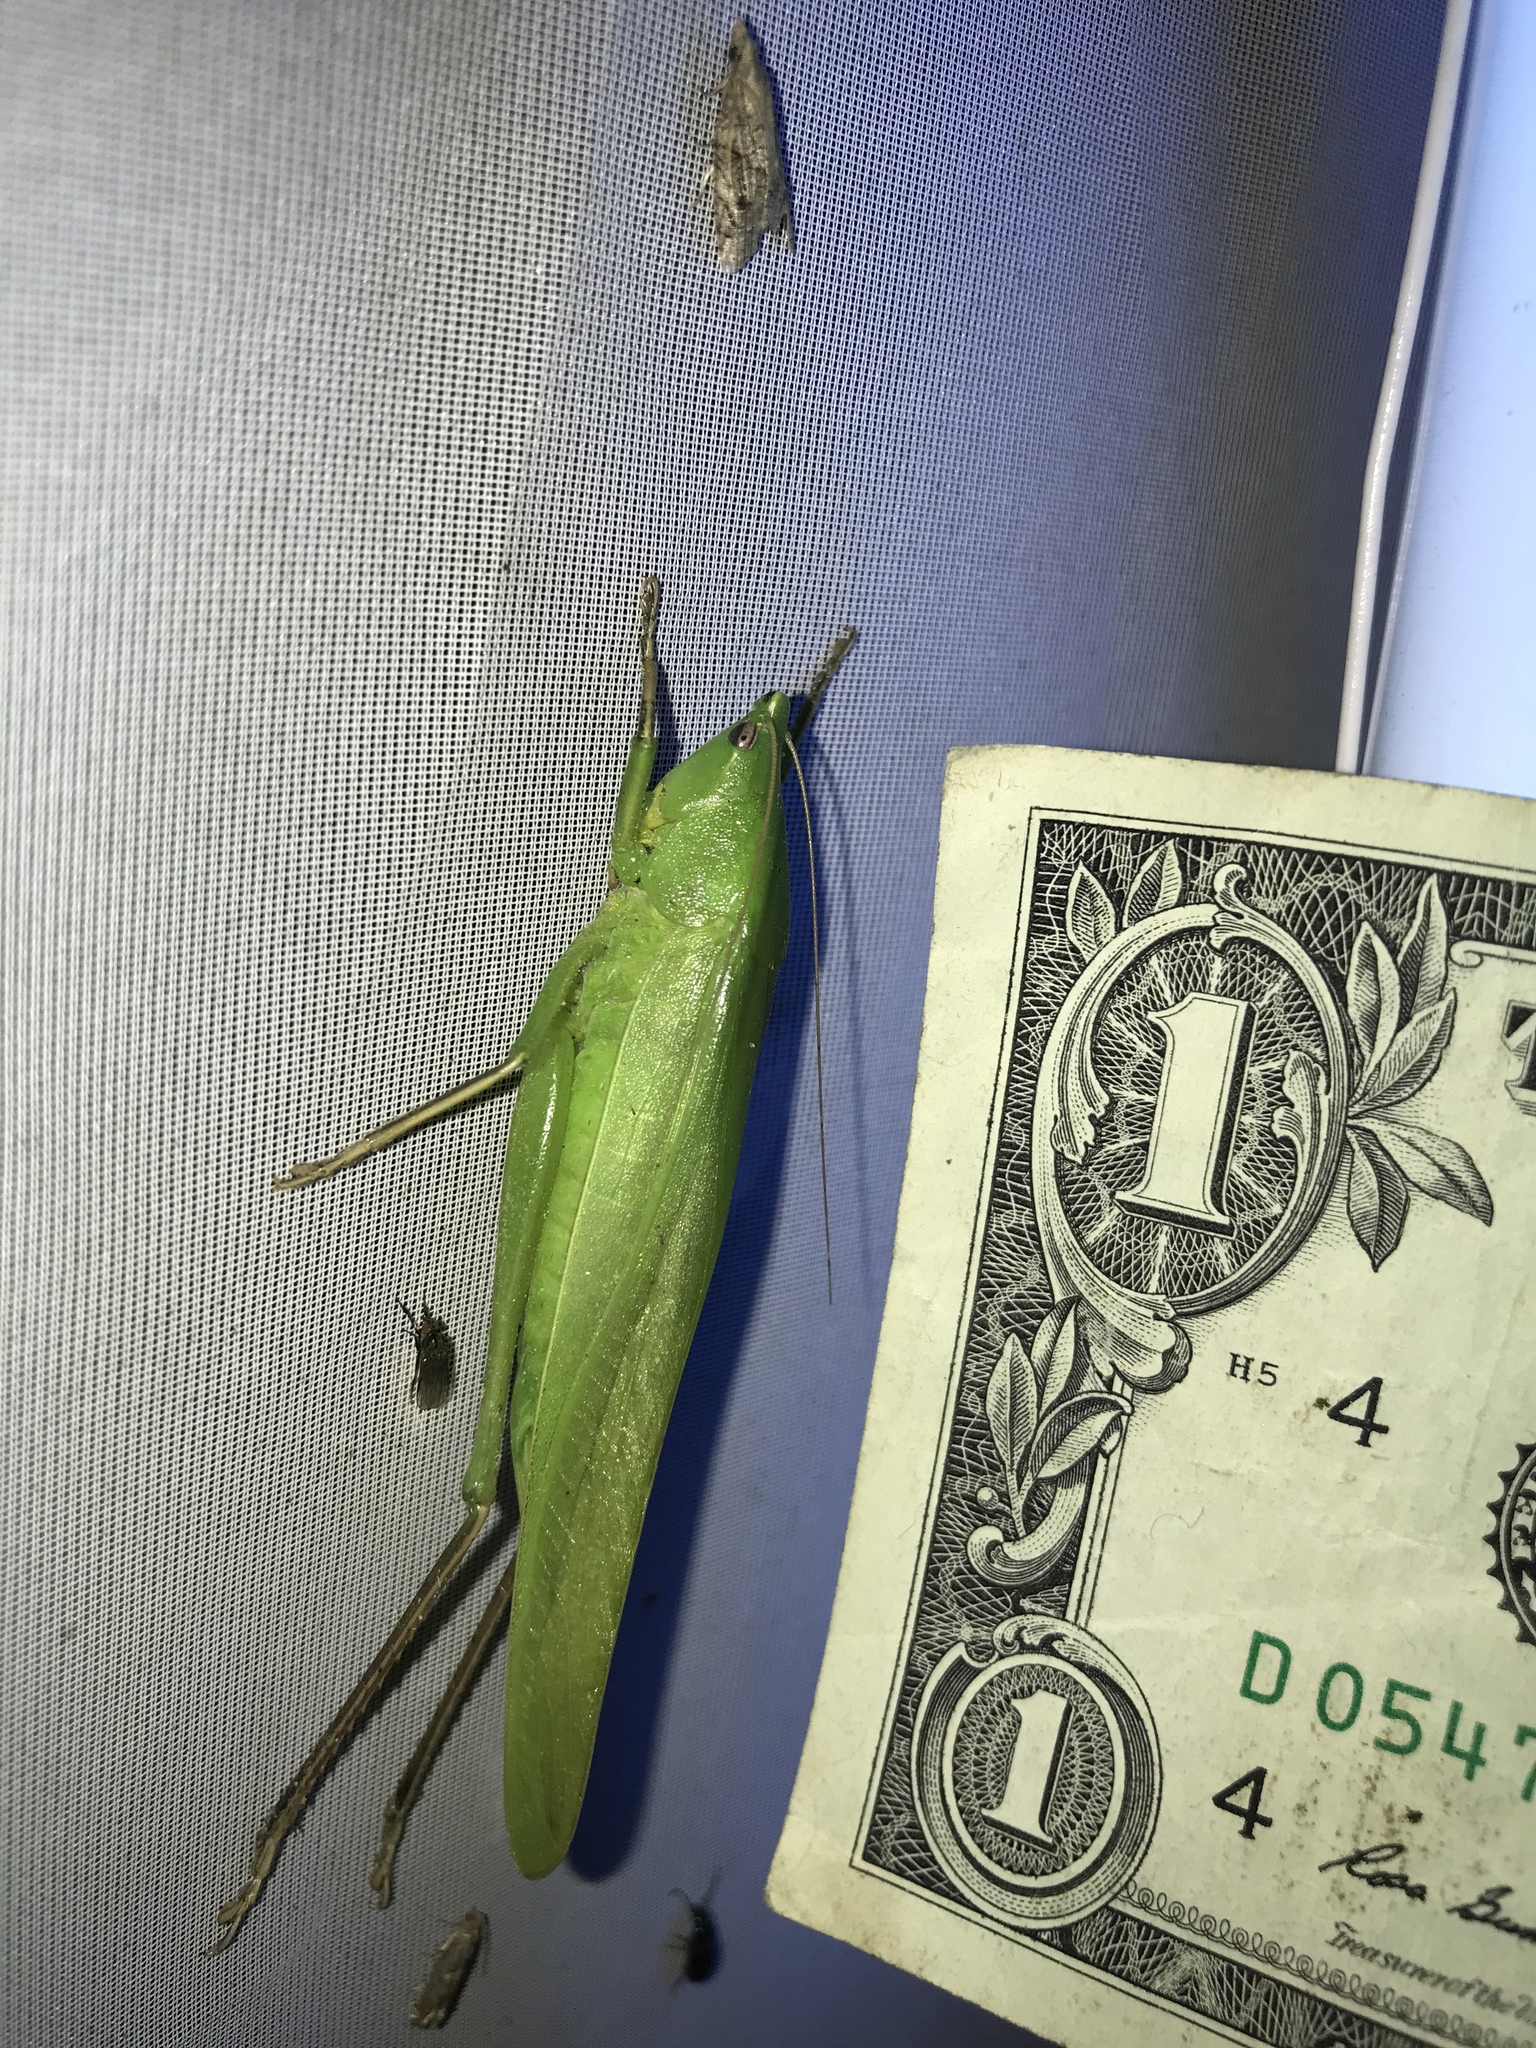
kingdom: Animalia
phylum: Arthropoda
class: Insecta
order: Orthoptera
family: Tettigoniidae
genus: Neoconocephalus
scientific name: Neoconocephalus triops
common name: Broad-tipped conehead
